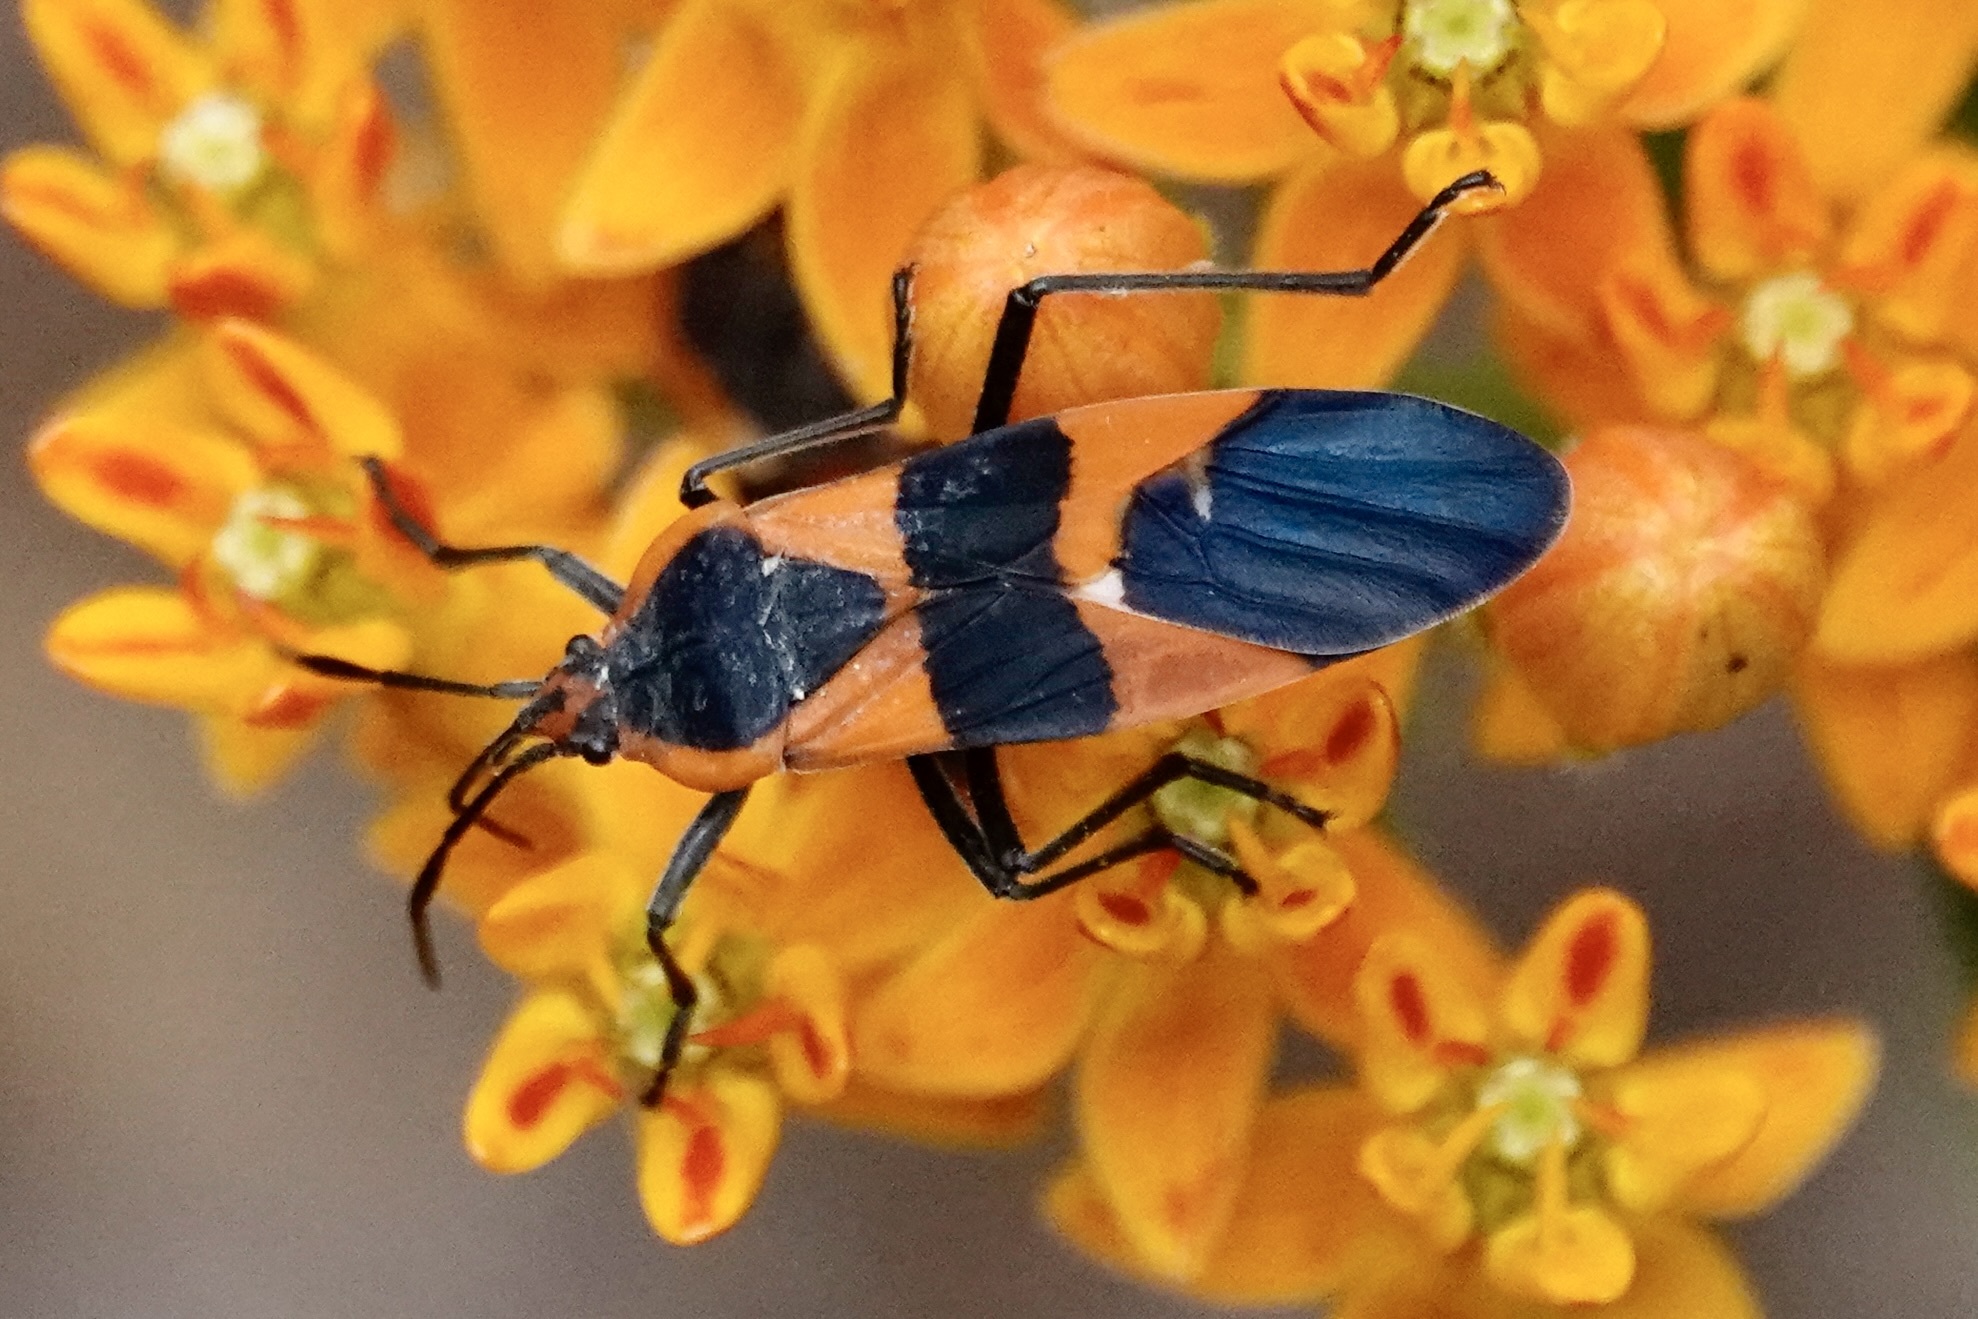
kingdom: Animalia
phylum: Arthropoda
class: Insecta
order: Hemiptera
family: Lygaeidae
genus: Oncopeltus
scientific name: Oncopeltus fasciatus
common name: Large milkweed bug
